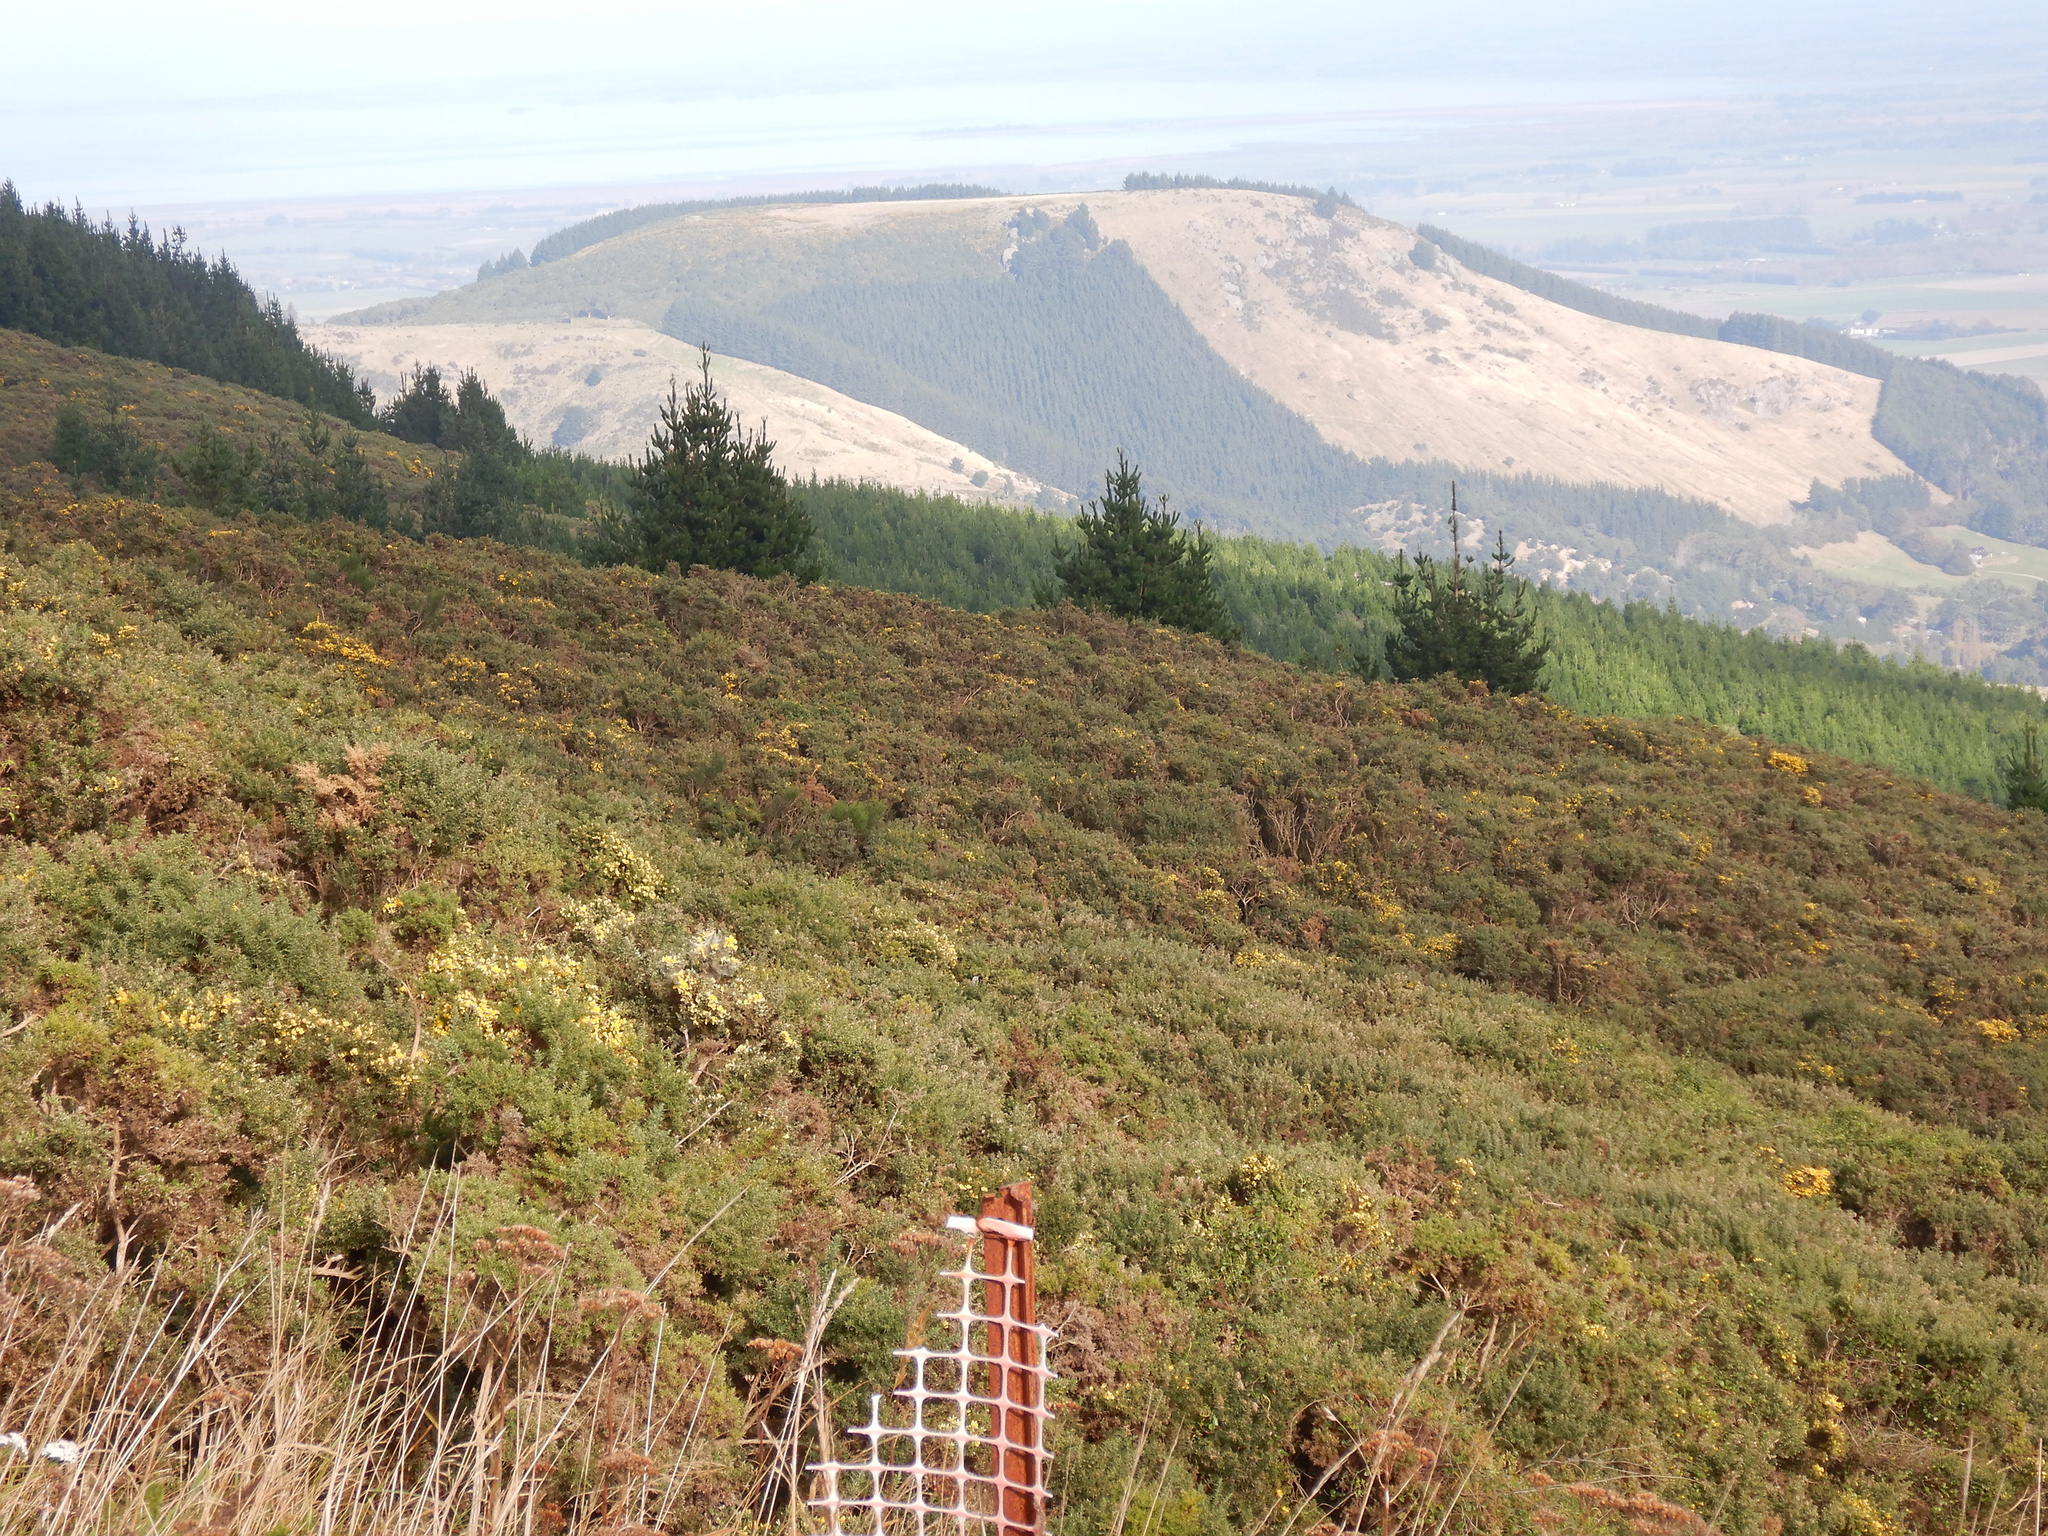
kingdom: Plantae
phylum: Tracheophyta
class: Magnoliopsida
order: Fabales
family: Fabaceae
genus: Ulex
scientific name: Ulex europaeus
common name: Common gorse
